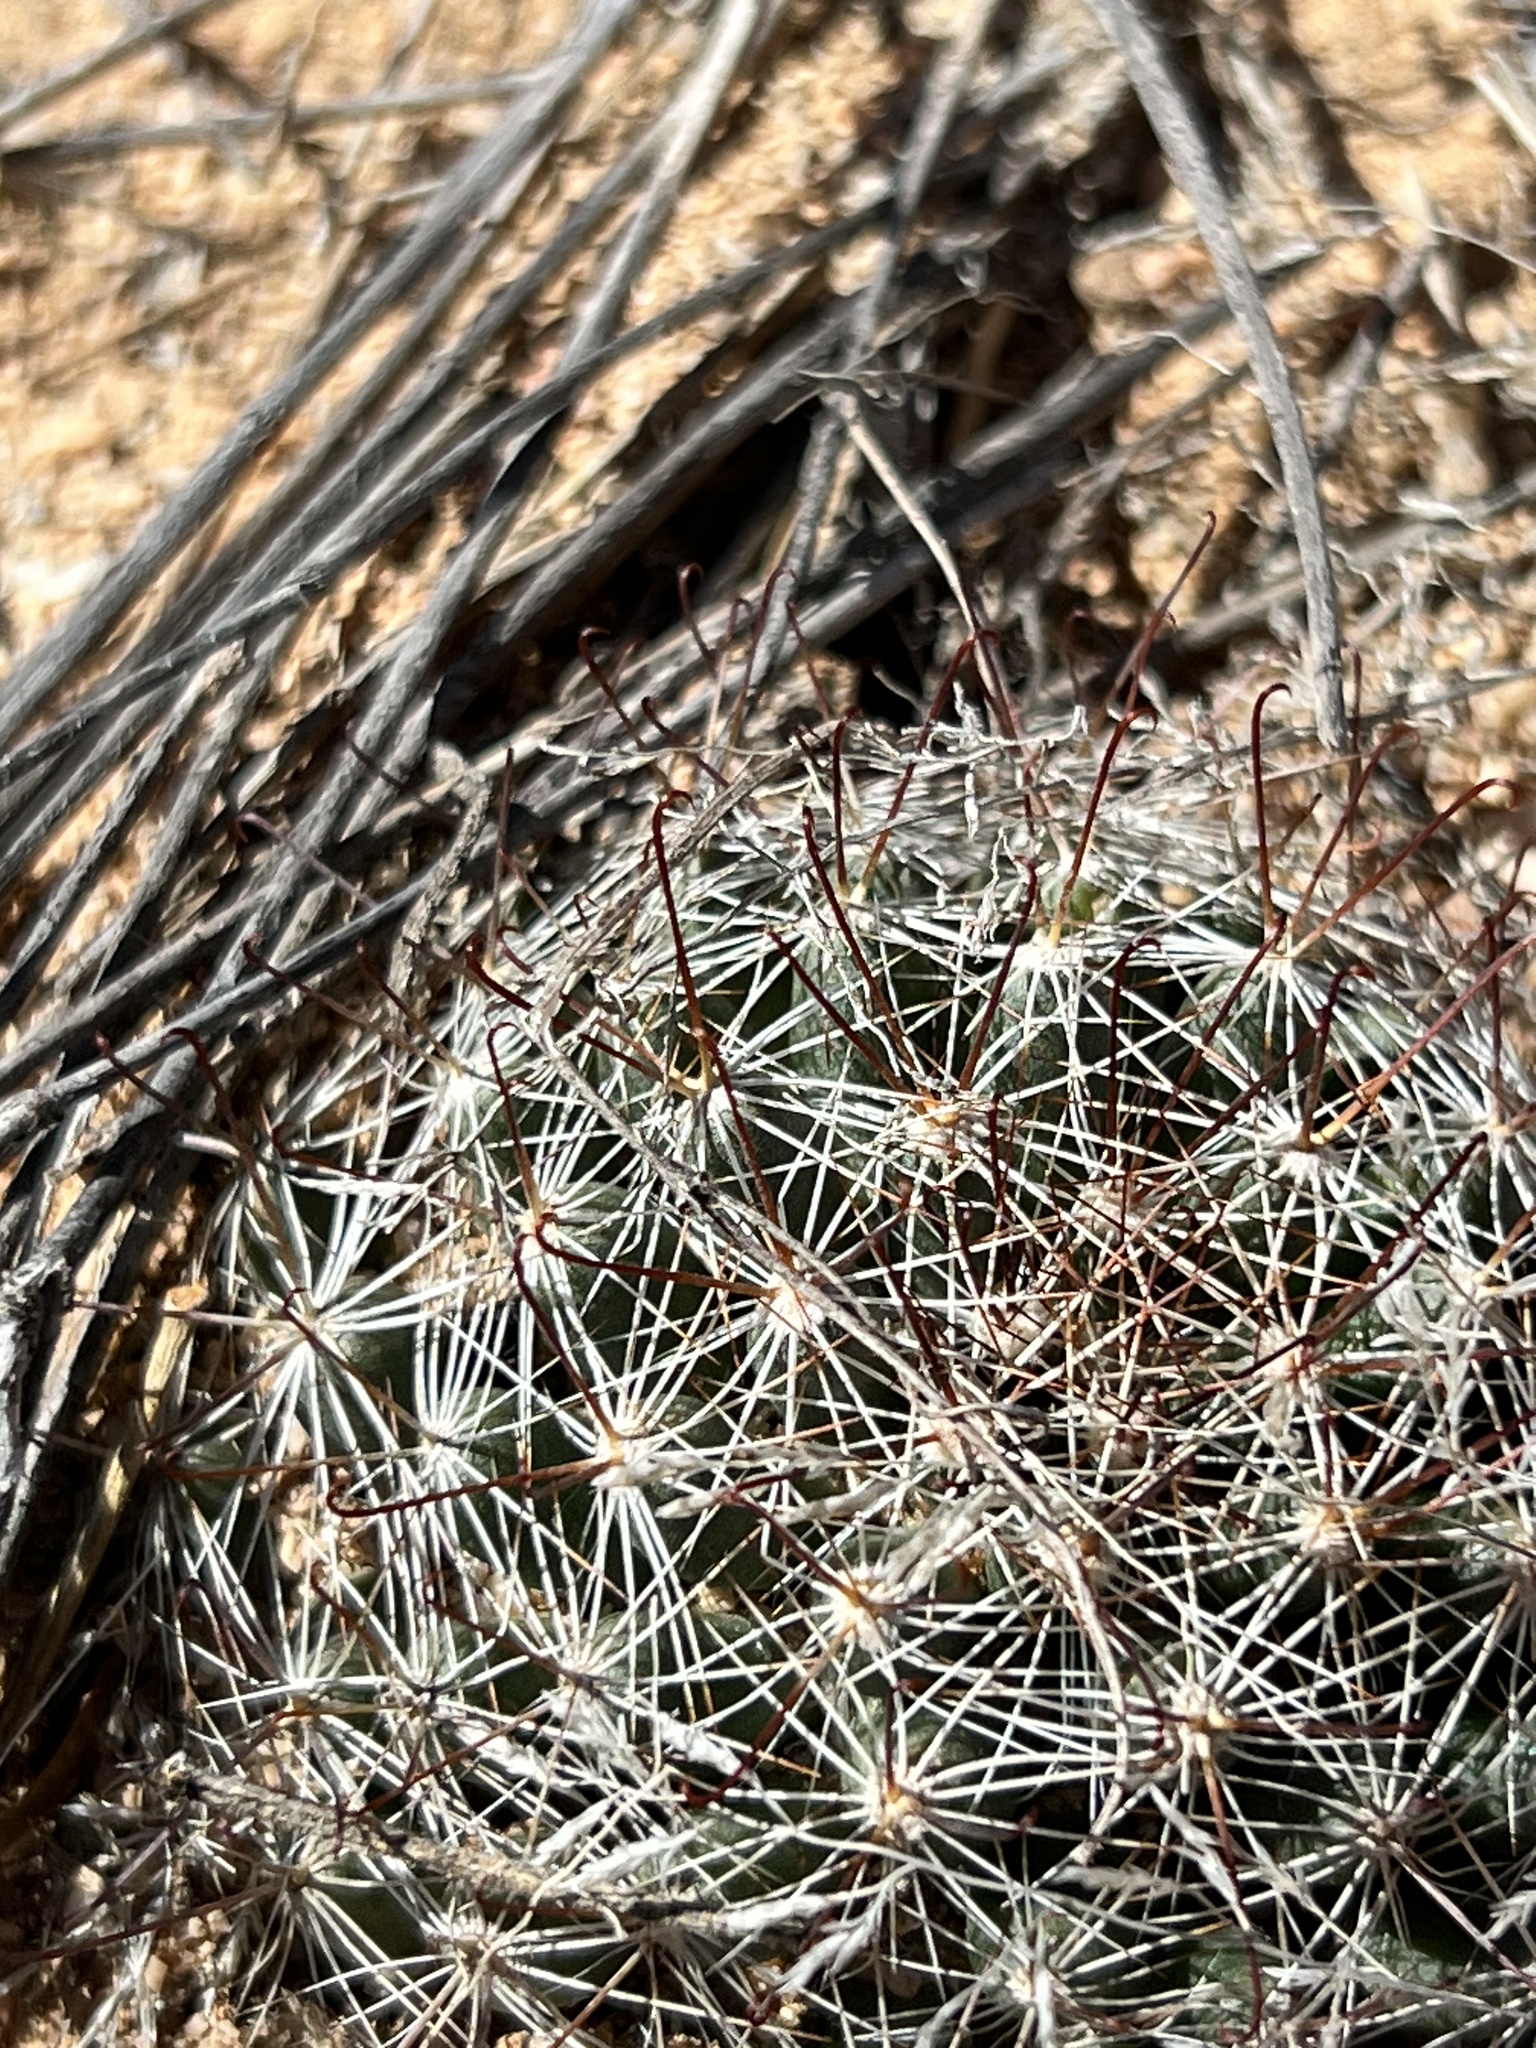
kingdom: Plantae
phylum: Tracheophyta
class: Magnoliopsida
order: Caryophyllales
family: Cactaceae
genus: Cochemiea
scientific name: Cochemiea wrightii
